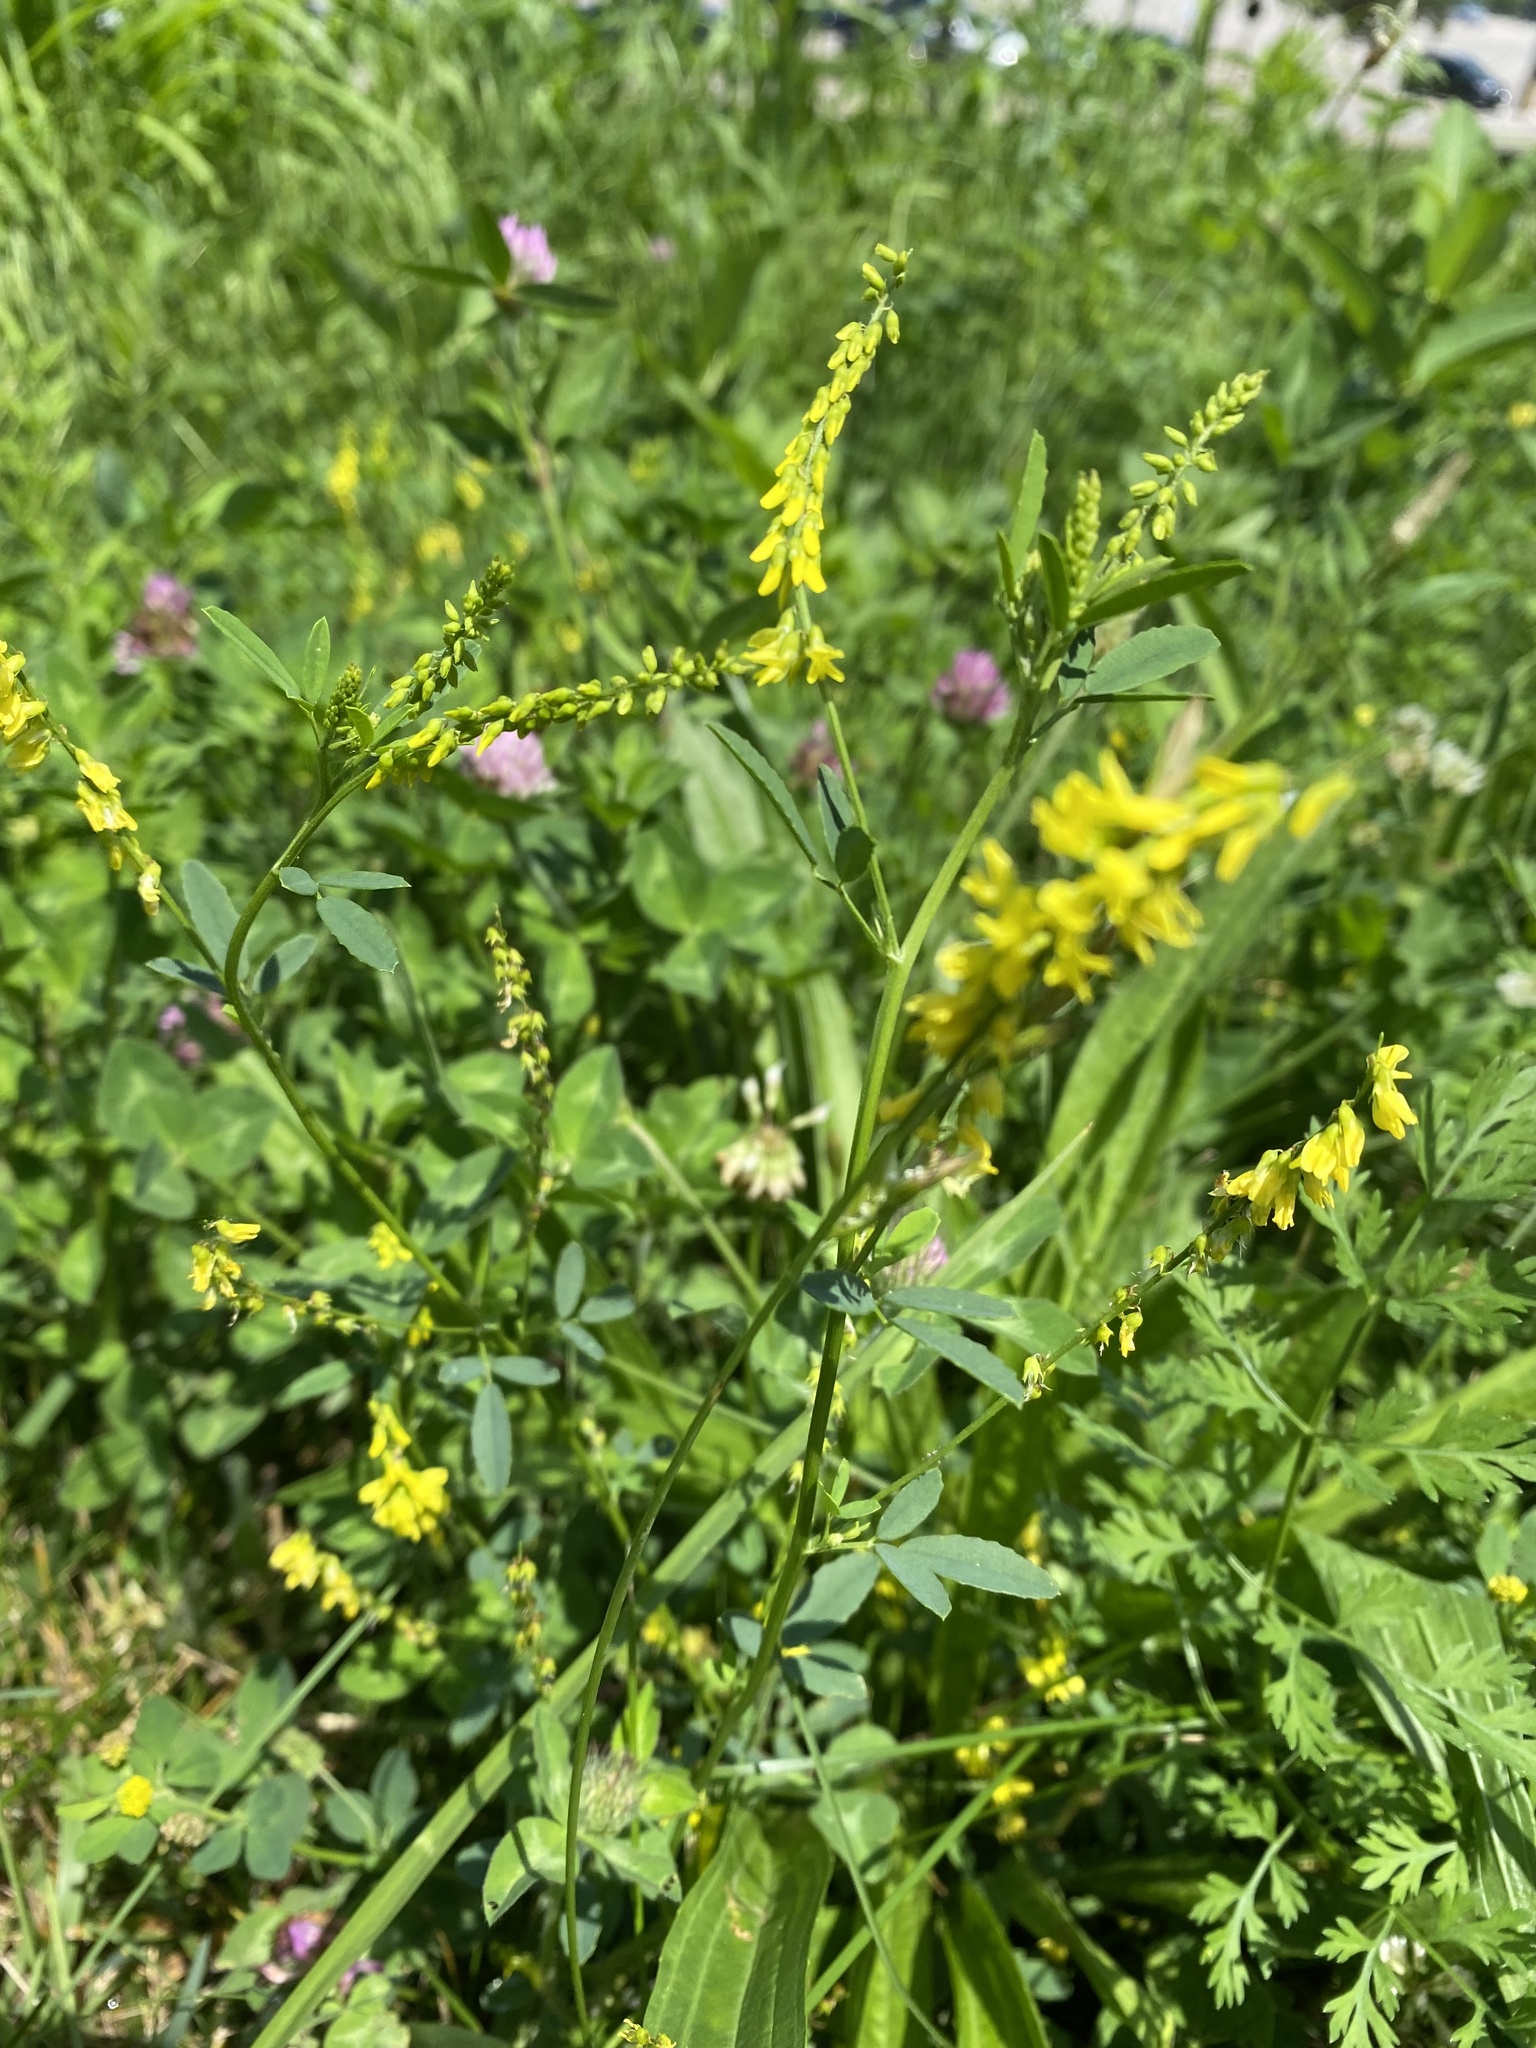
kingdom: Plantae
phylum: Tracheophyta
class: Magnoliopsida
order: Fabales
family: Fabaceae
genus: Melilotus
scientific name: Melilotus officinalis
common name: Sweetclover
